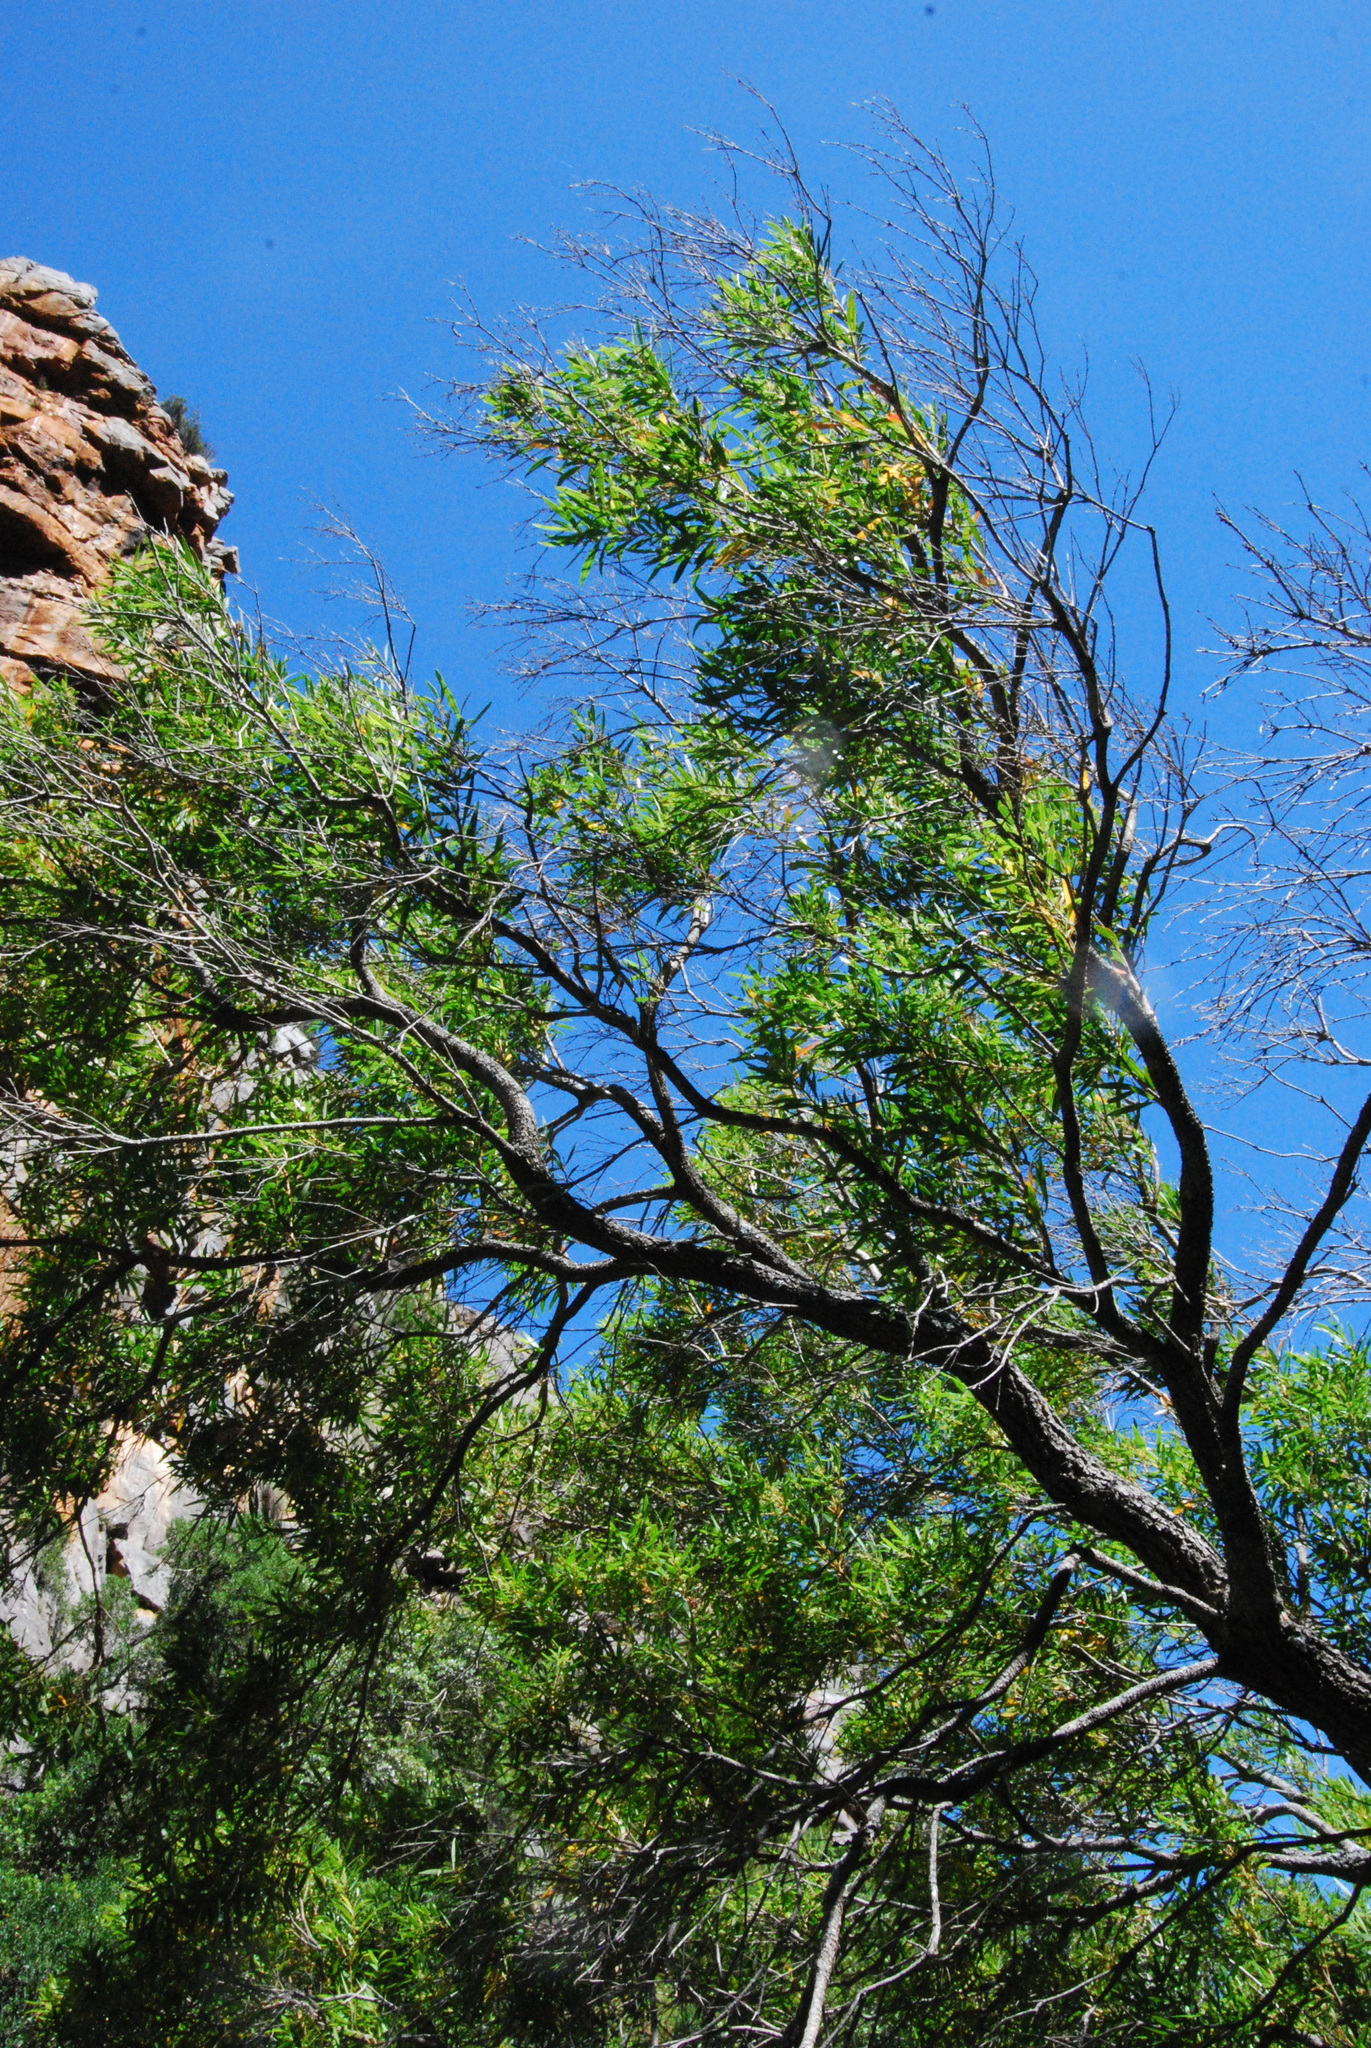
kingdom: Plantae
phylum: Tracheophyta
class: Magnoliopsida
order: Asterales
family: Asteraceae
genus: Brachylaena
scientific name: Brachylaena neriifolia
